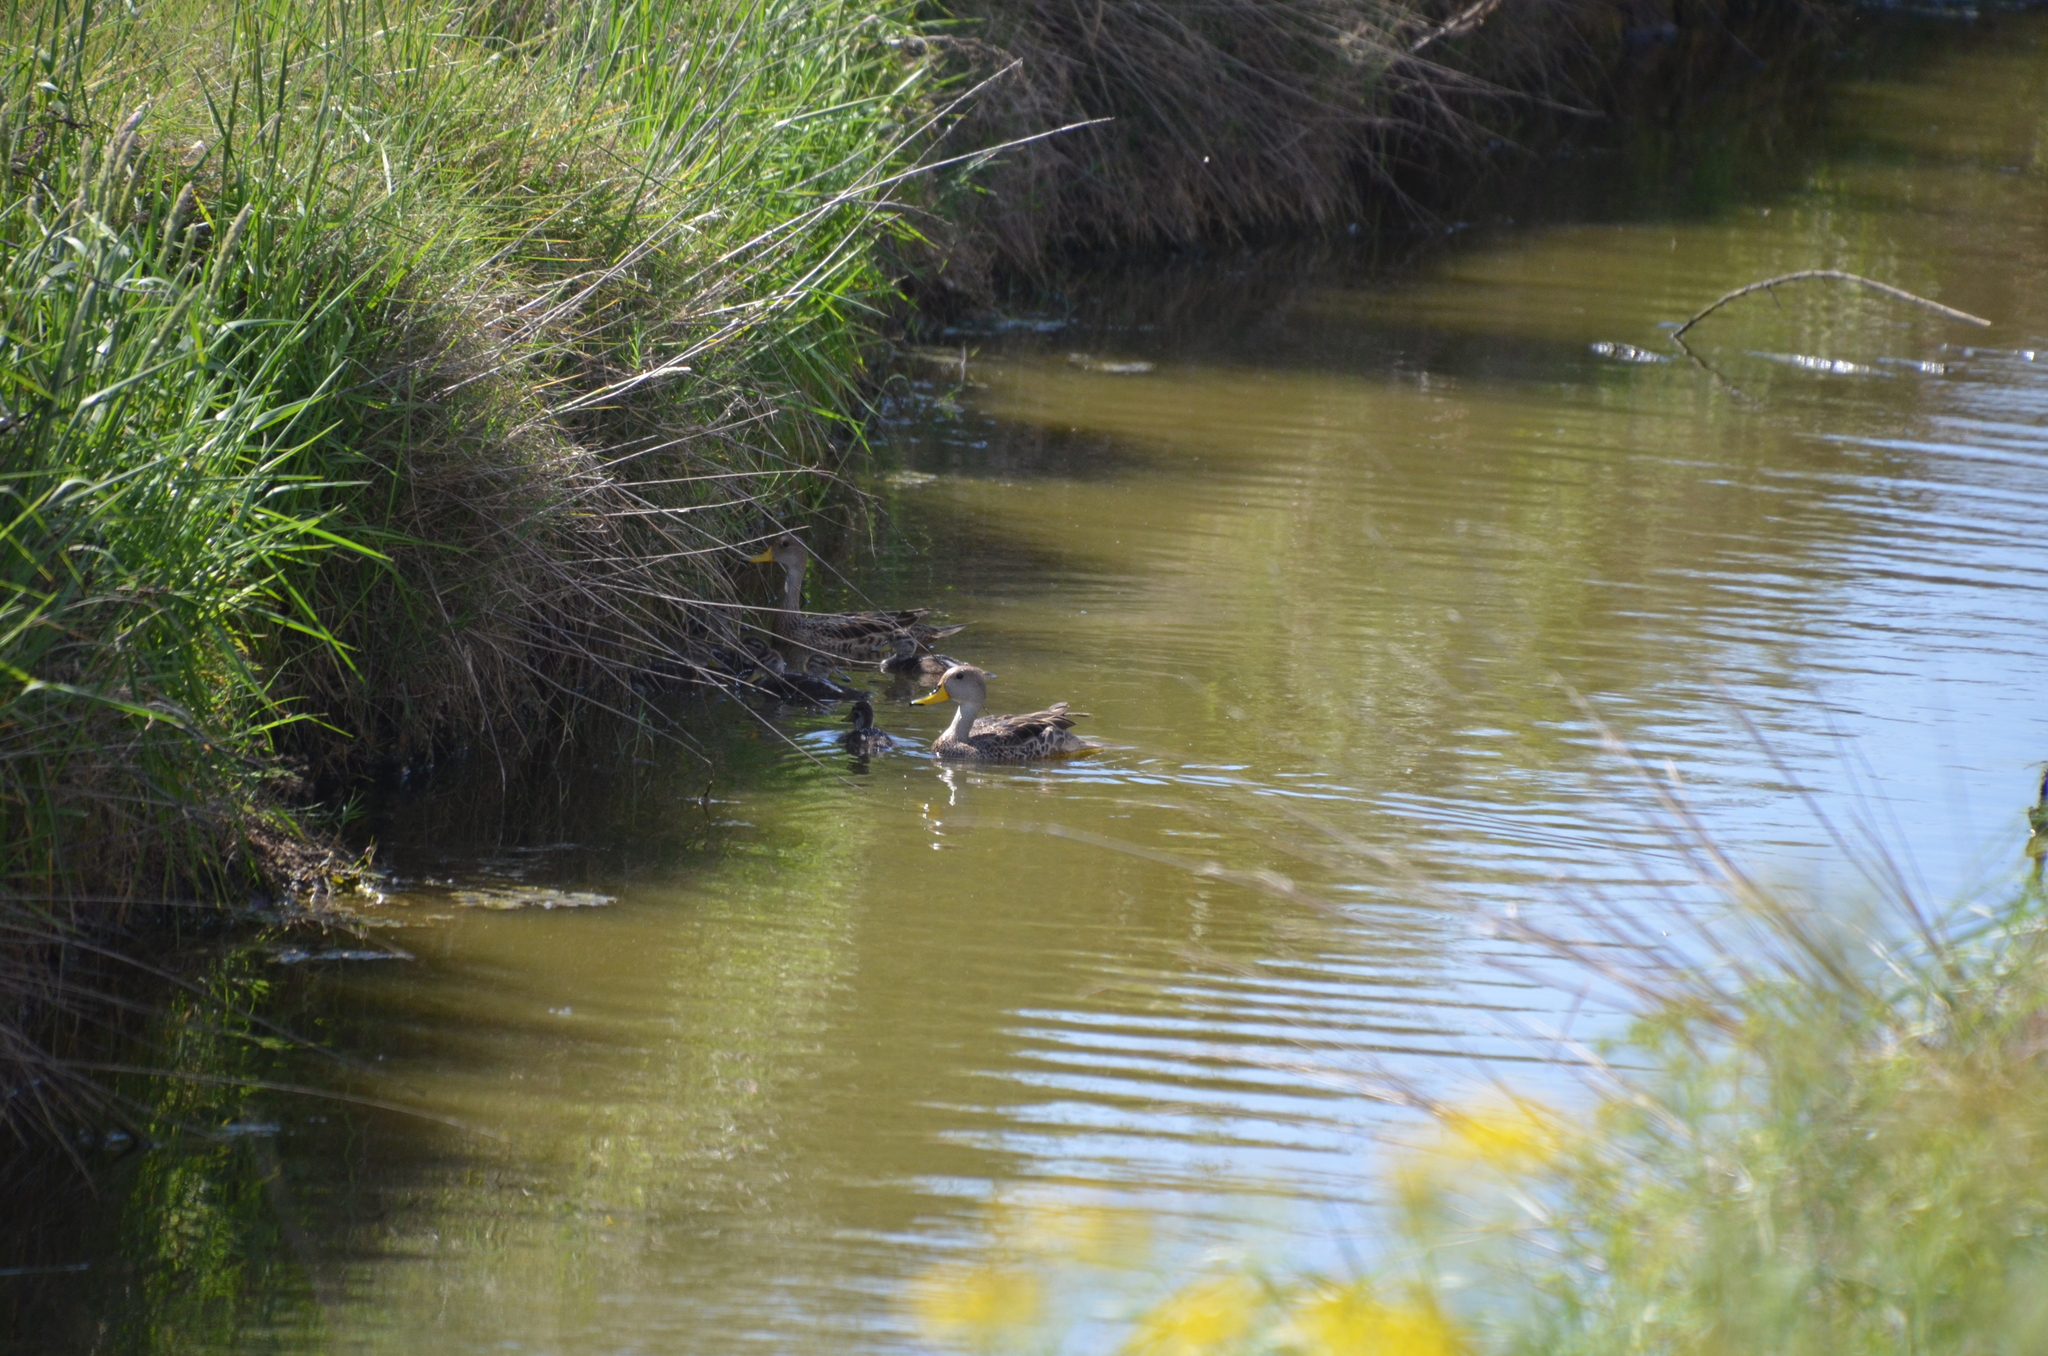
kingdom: Animalia
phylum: Chordata
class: Aves
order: Anseriformes
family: Anatidae
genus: Anas
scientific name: Anas georgica
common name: Yellow-billed pintail
